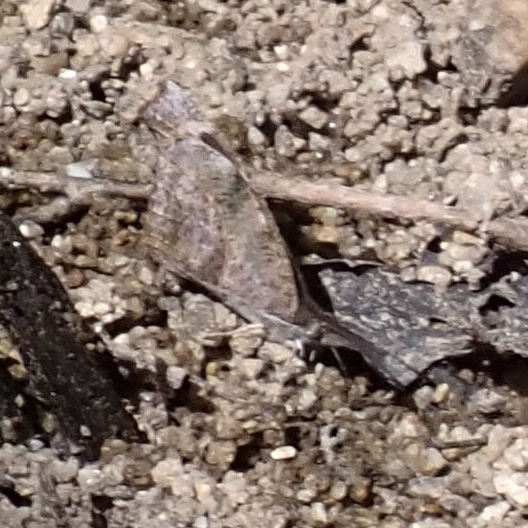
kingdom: Animalia
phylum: Arthropoda
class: Insecta
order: Lepidoptera
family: Nymphalidae
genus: Libytheana
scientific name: Libytheana carinenta
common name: American snout
